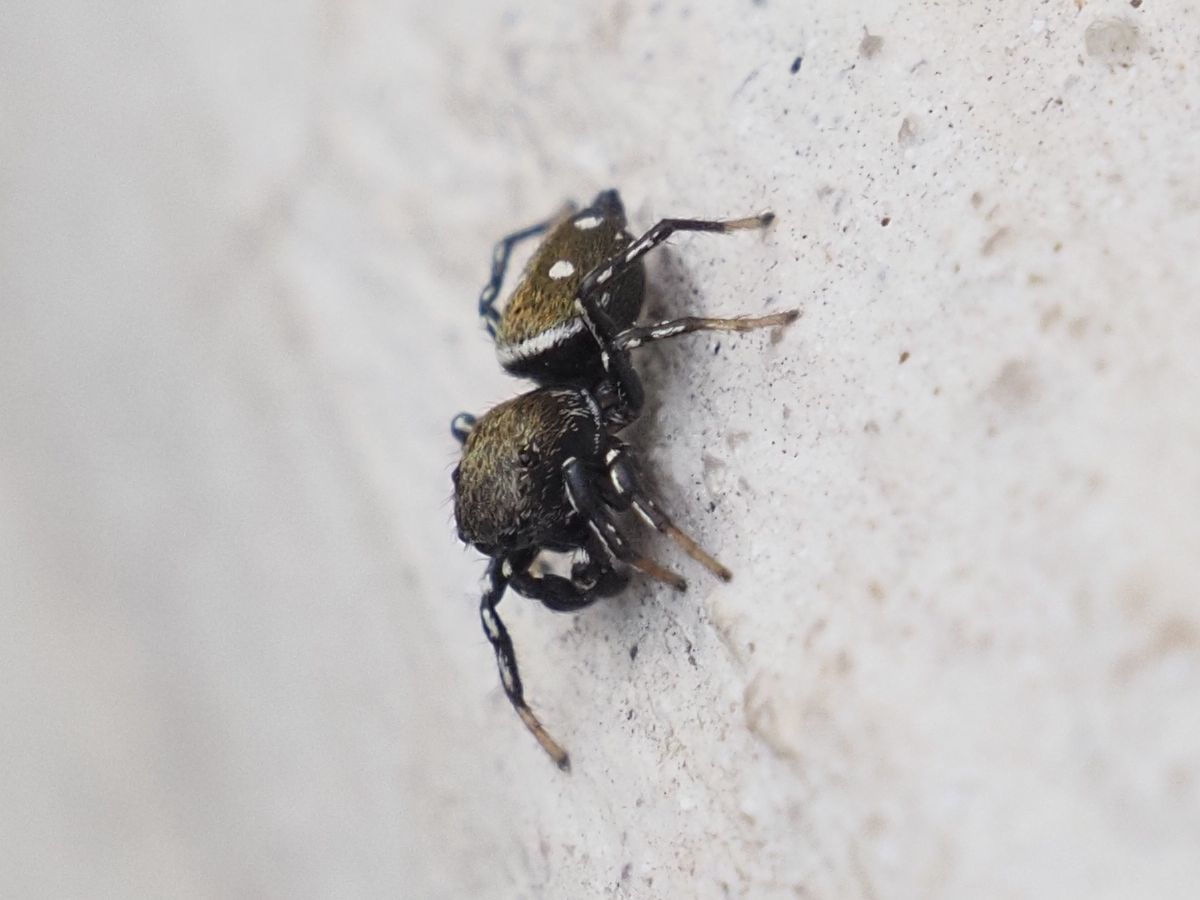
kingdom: Animalia
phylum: Arthropoda
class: Arachnida
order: Araneae
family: Salticidae
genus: Heliophanus
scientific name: Heliophanus kochii
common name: Sun jumping spider
